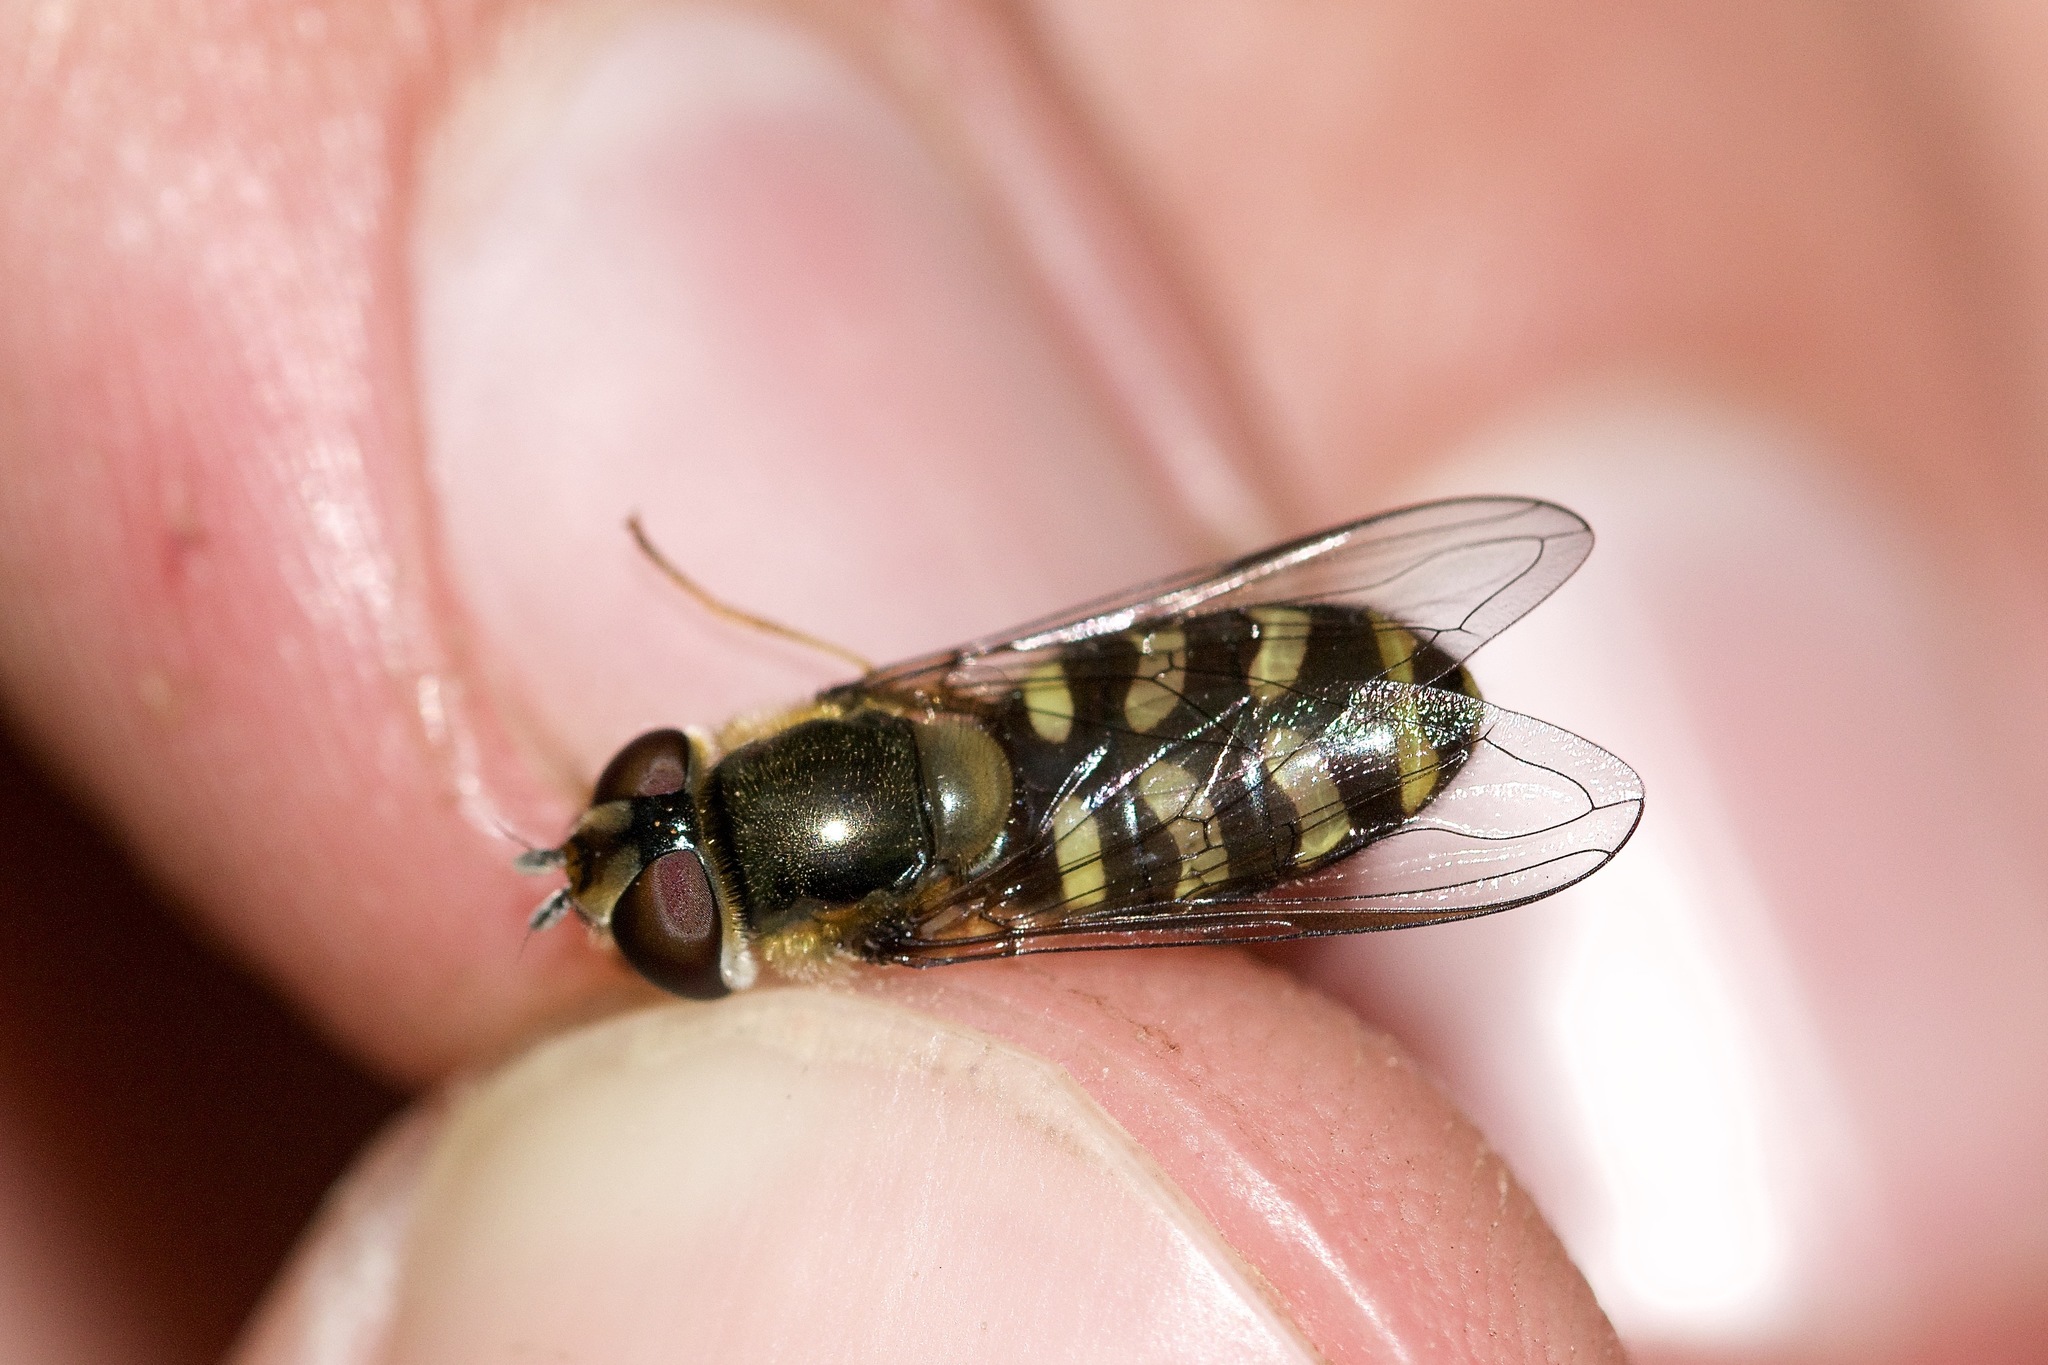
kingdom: Animalia
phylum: Arthropoda
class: Insecta
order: Diptera
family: Syrphidae
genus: Lapposyrphus
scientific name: Lapposyrphus lapponicus
